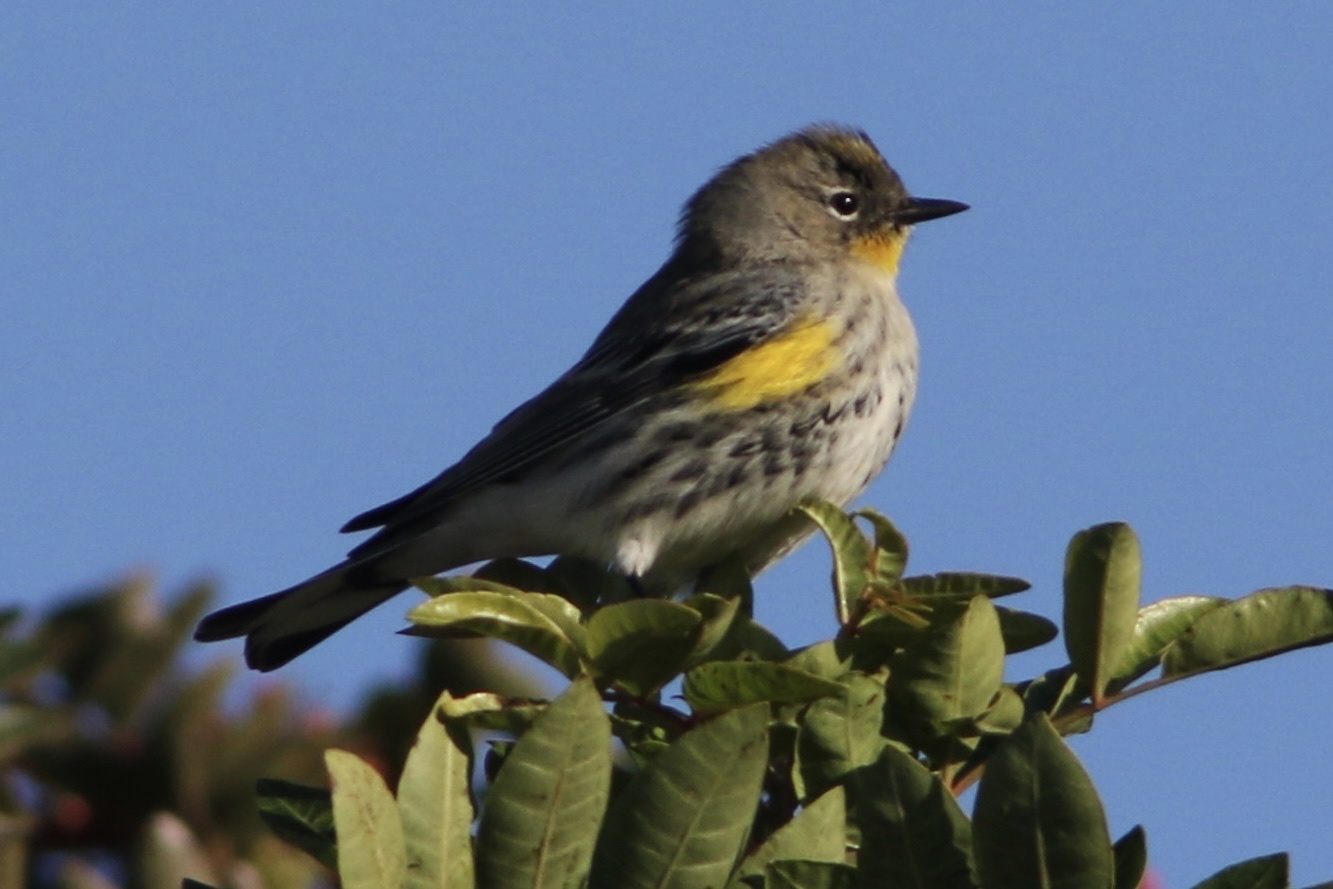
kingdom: Animalia
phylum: Chordata
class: Aves
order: Passeriformes
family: Parulidae
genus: Setophaga
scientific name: Setophaga coronata
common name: Myrtle warbler
